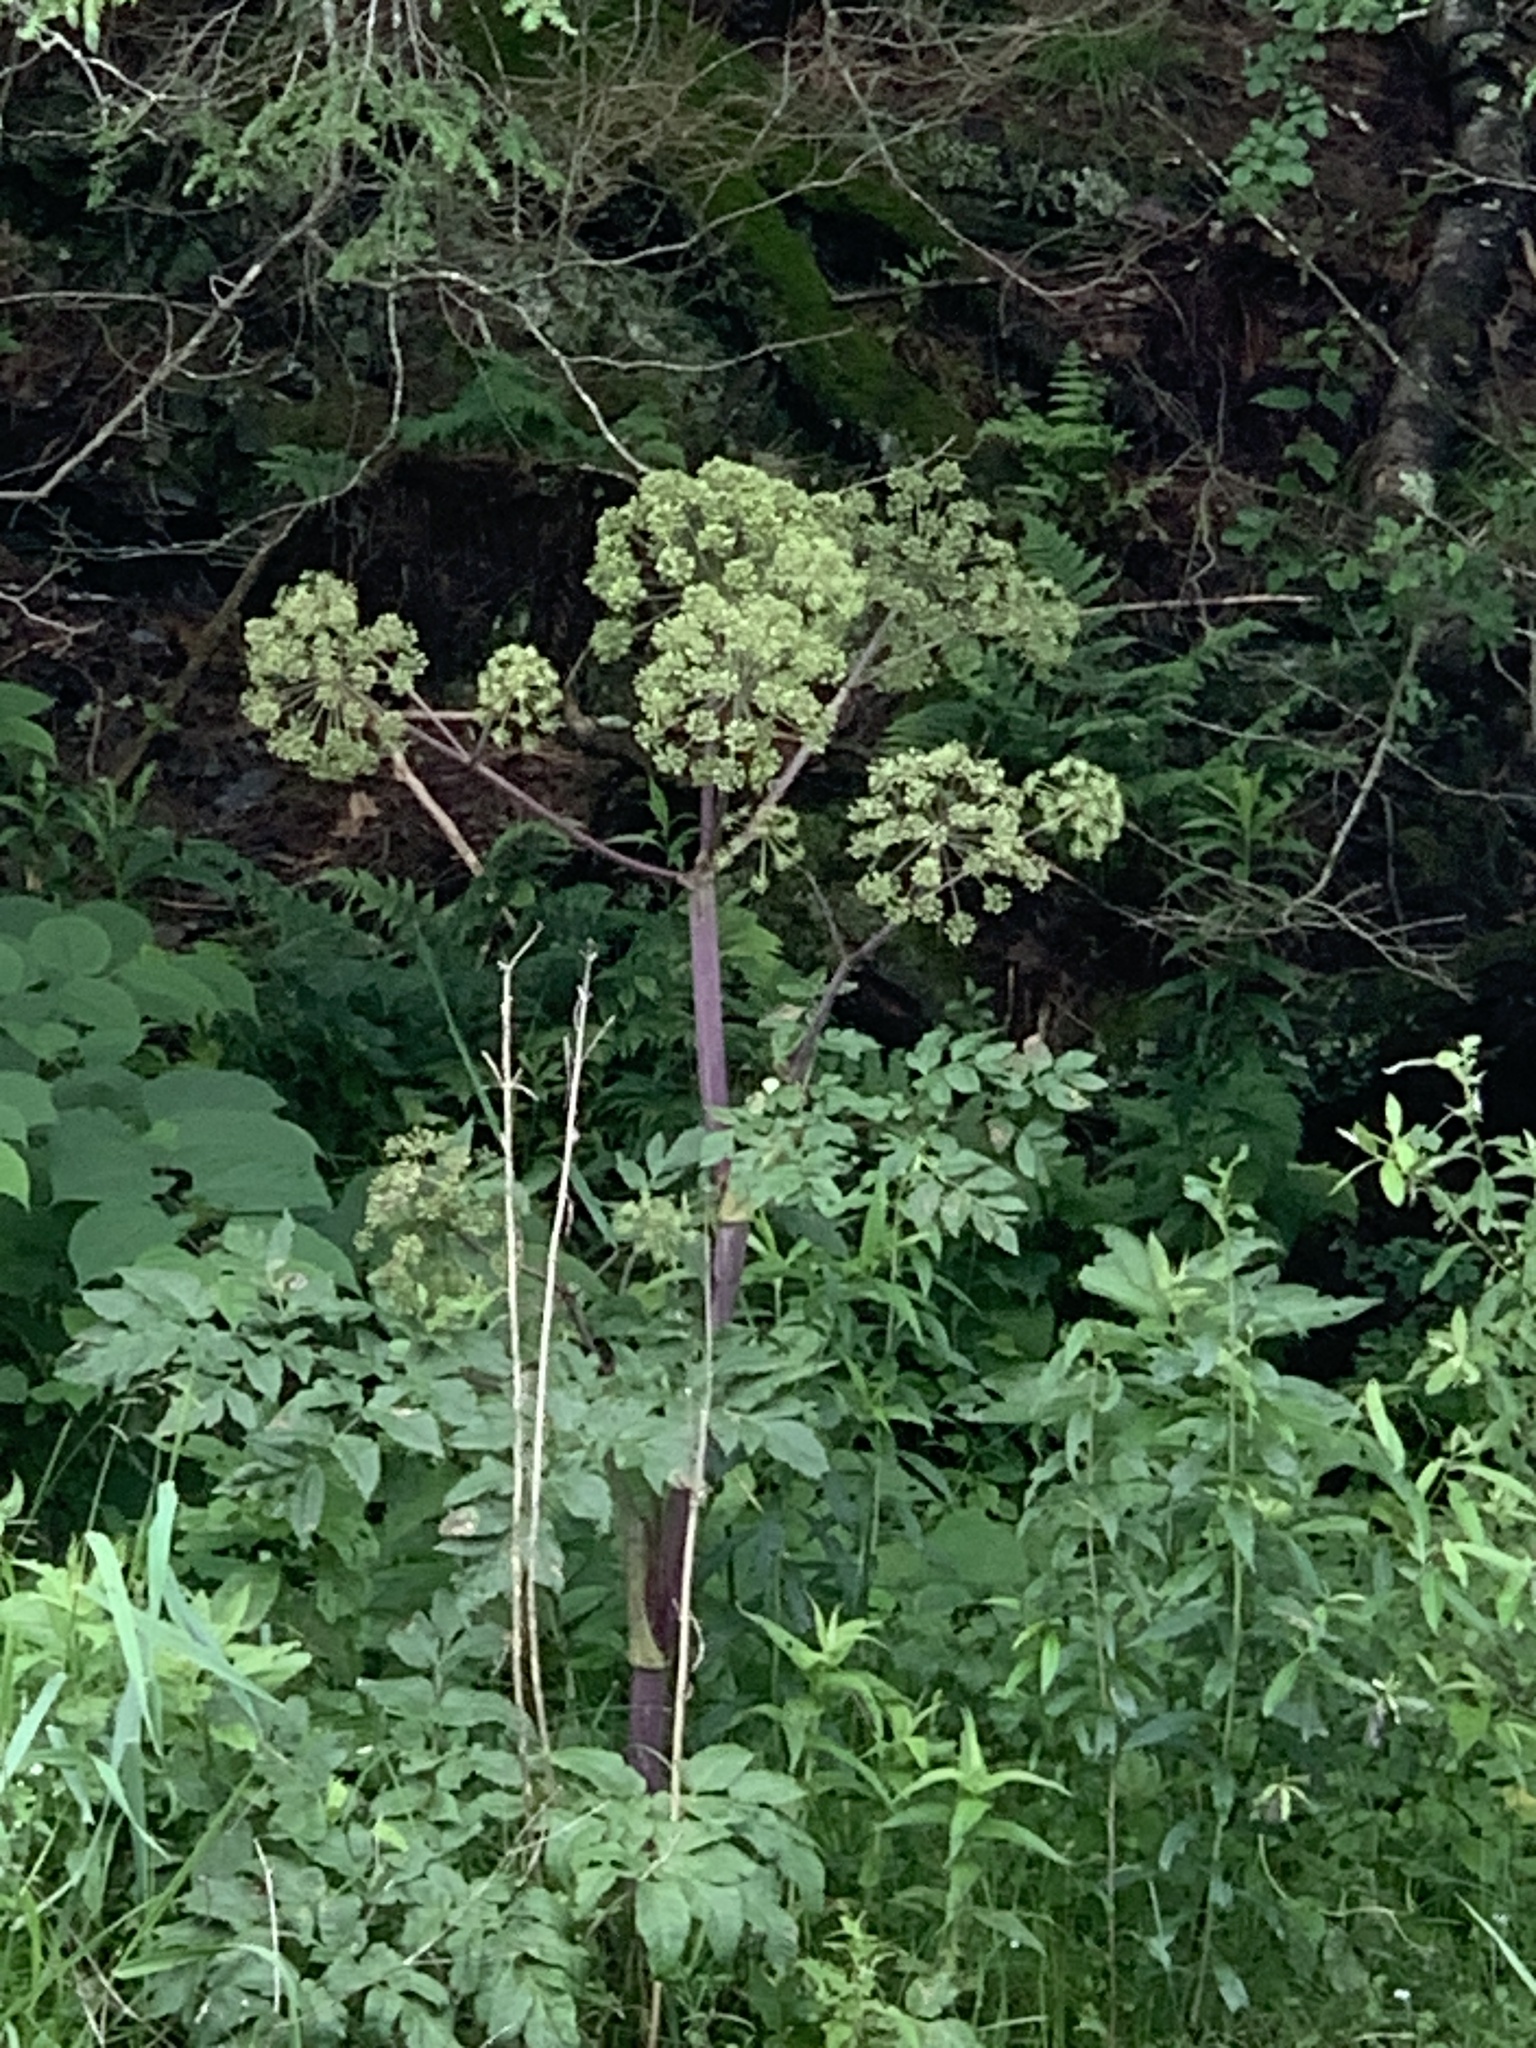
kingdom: Plantae
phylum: Tracheophyta
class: Magnoliopsida
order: Apiales
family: Apiaceae
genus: Angelica
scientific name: Angelica atropurpurea
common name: Great angelica
